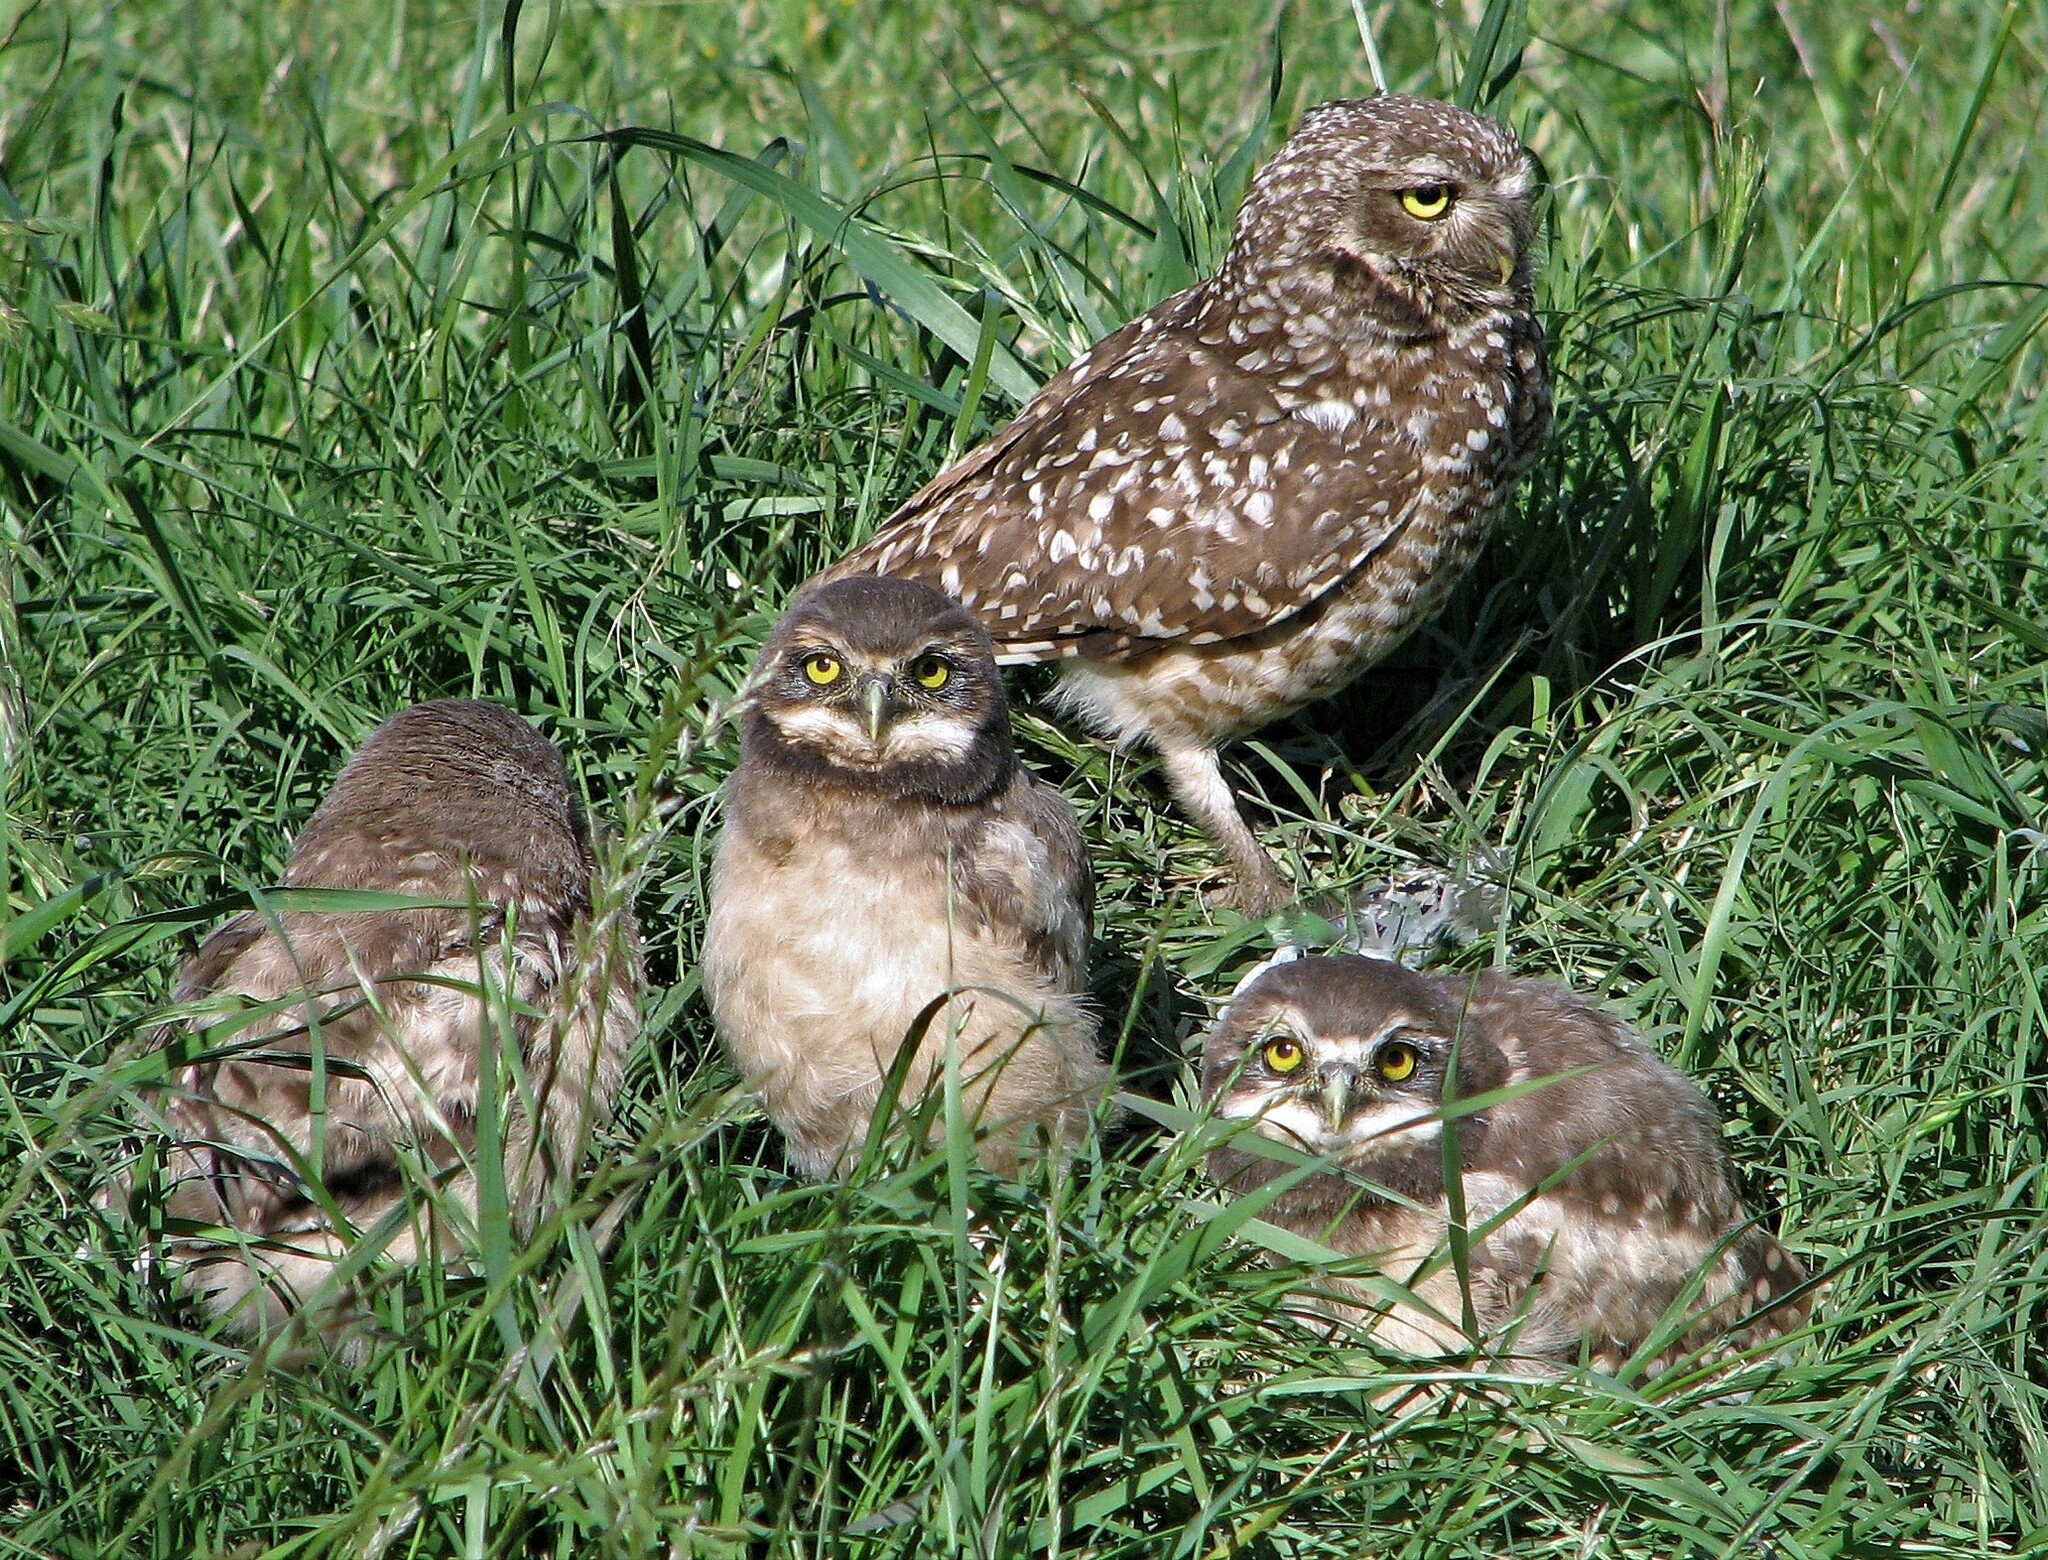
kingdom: Animalia
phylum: Chordata
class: Aves
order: Strigiformes
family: Strigidae
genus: Athene
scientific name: Athene cunicularia
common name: Burrowing owl
